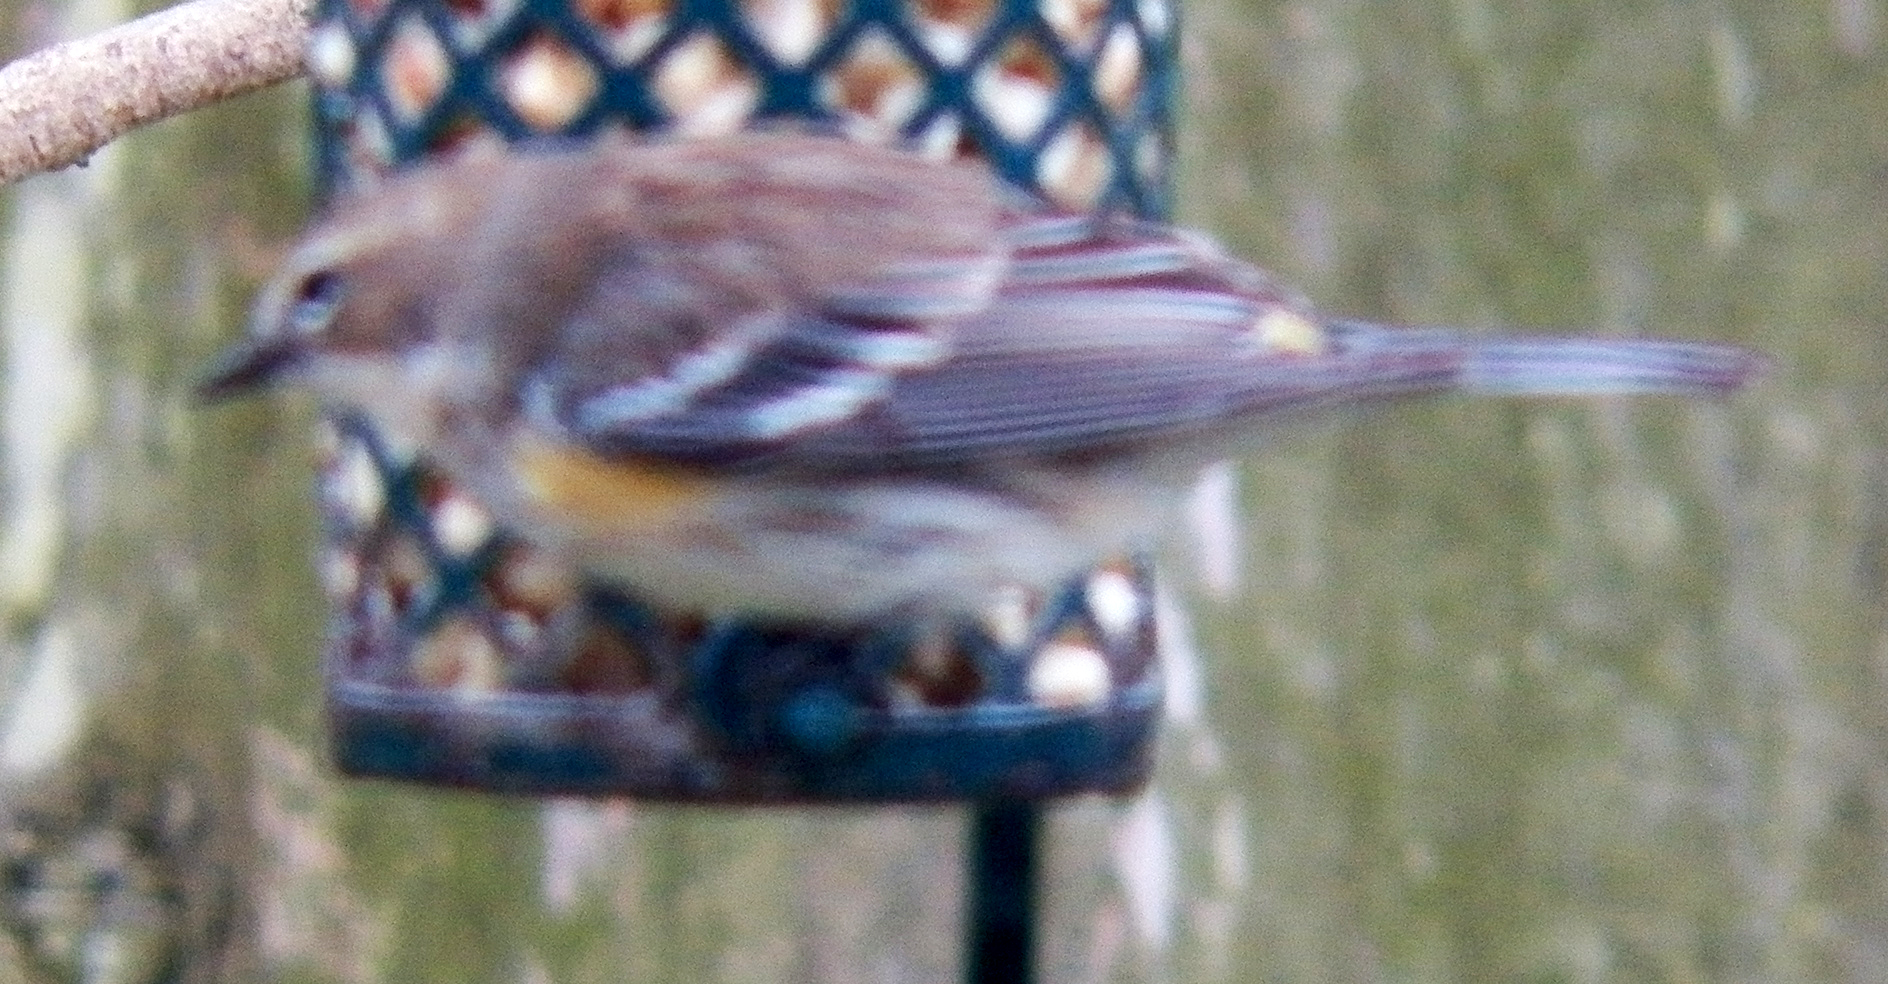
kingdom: Animalia
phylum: Chordata
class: Aves
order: Passeriformes
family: Parulidae
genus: Setophaga
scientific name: Setophaga coronata
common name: Myrtle warbler
